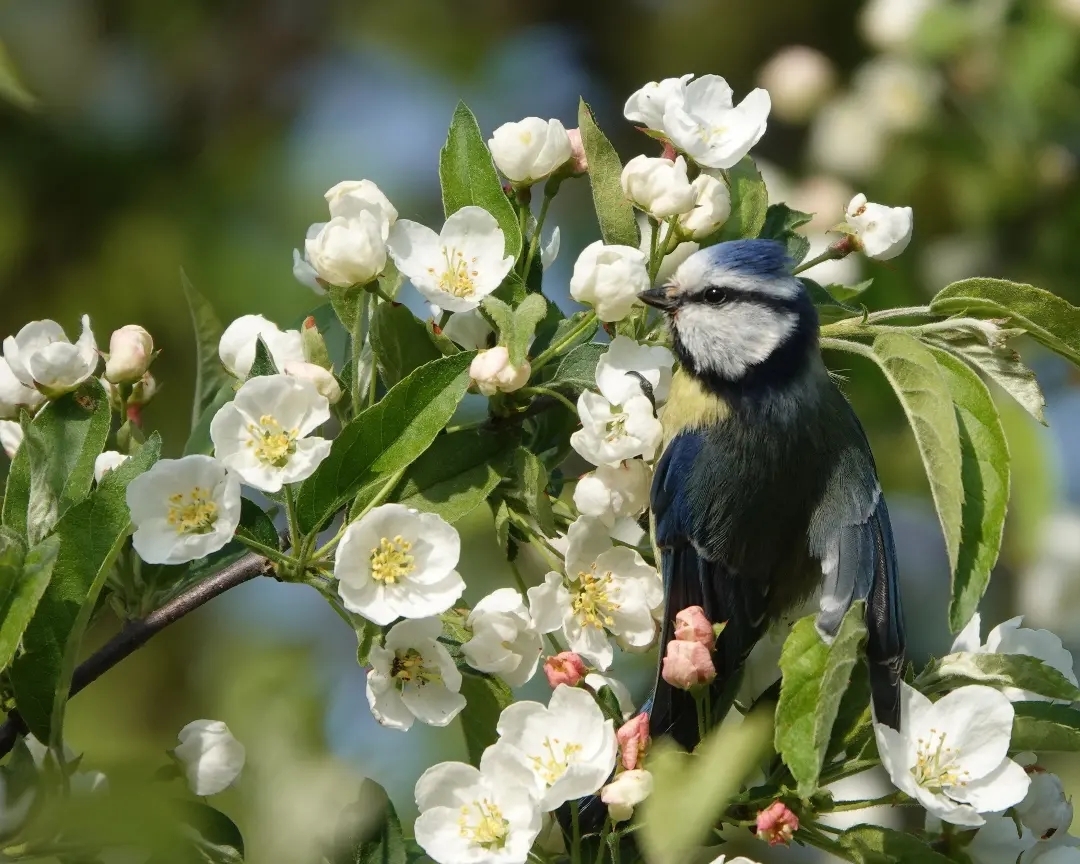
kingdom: Animalia
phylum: Chordata
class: Aves
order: Passeriformes
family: Paridae
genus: Cyanistes
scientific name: Cyanistes caeruleus
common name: Eurasian blue tit
